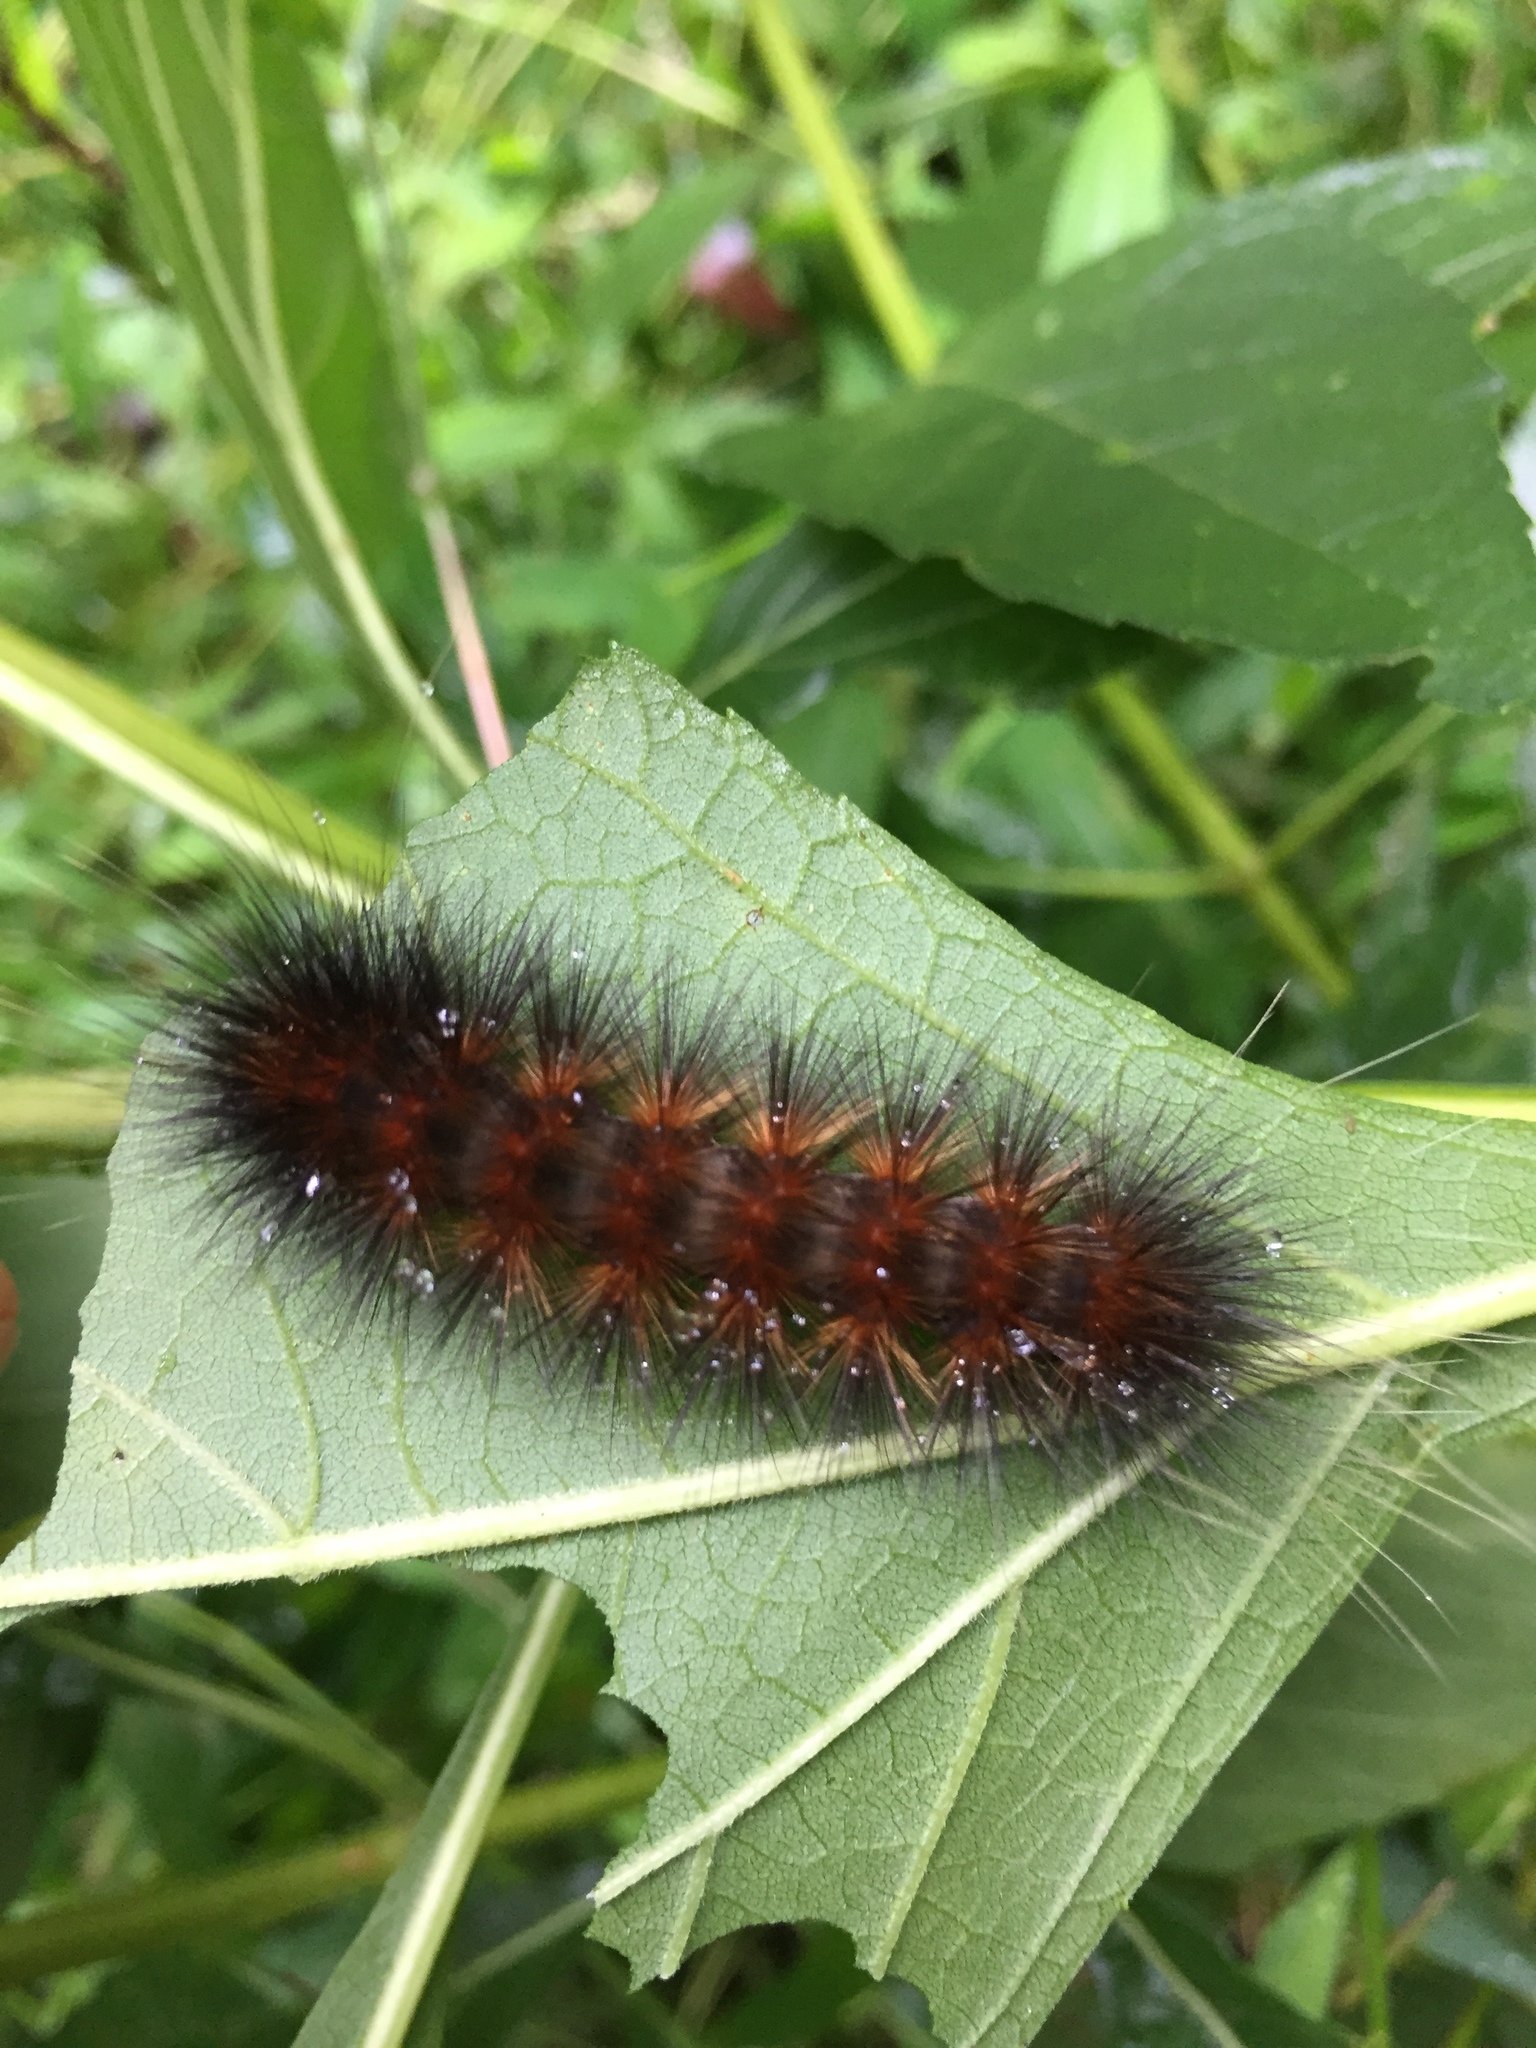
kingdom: Animalia
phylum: Arthropoda
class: Insecta
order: Lepidoptera
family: Erebidae
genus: Spilosoma
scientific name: Spilosoma virginica
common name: Virginia tiger moth
